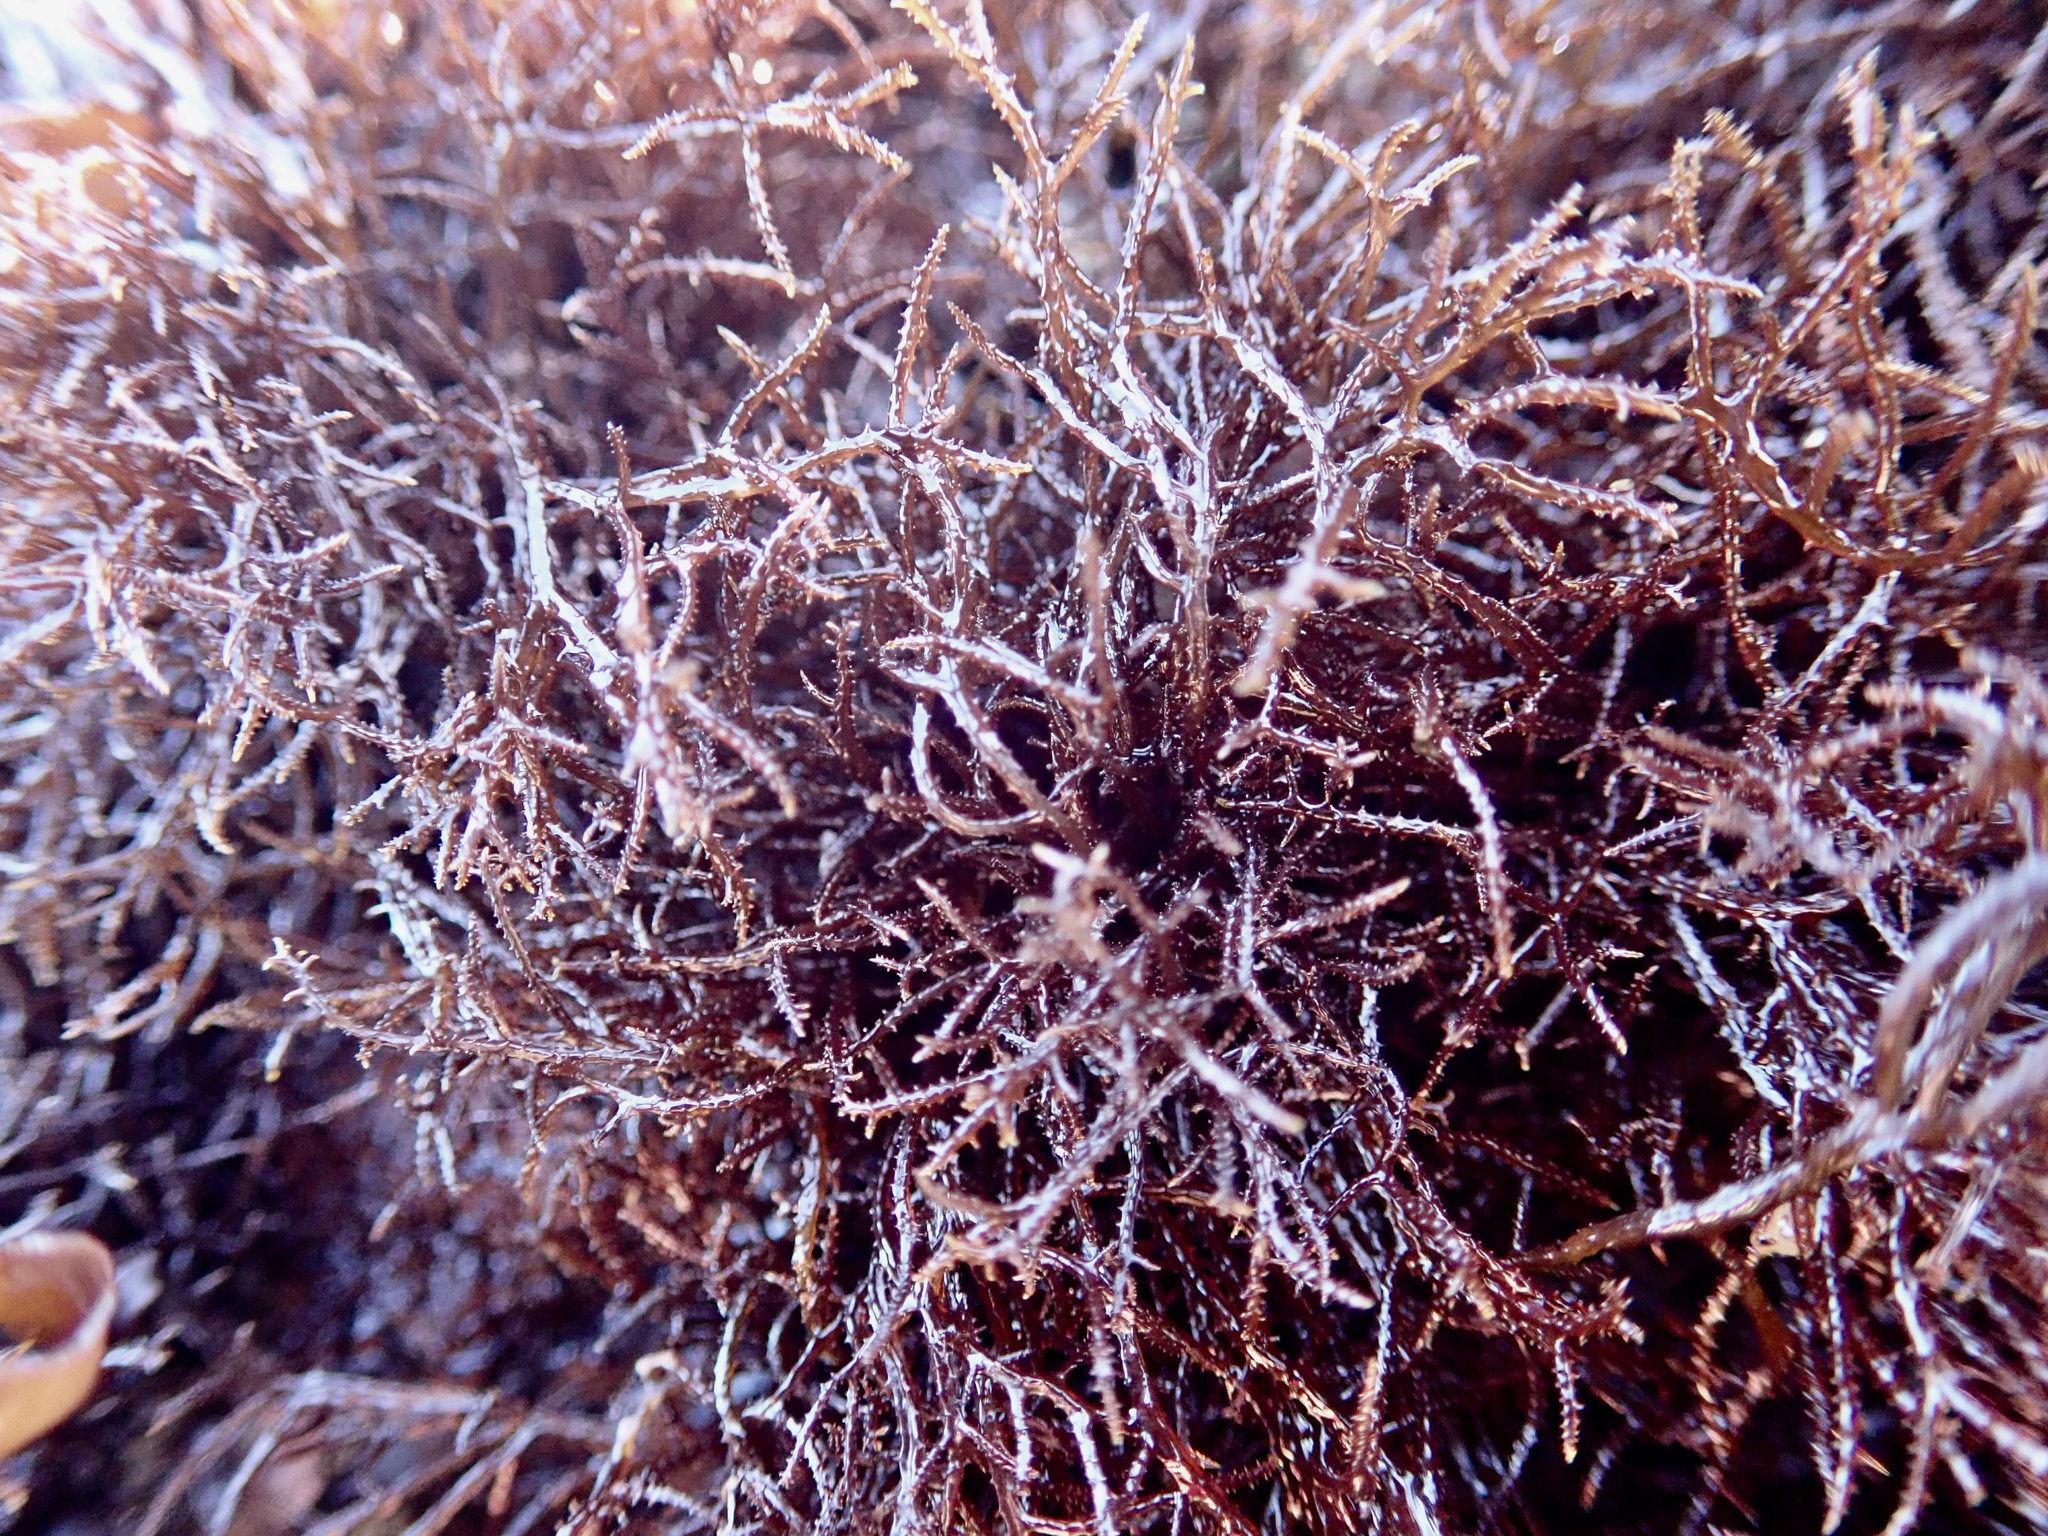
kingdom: Plantae
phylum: Rhodophyta
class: Florideophyceae
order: Gigartinales
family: Endocladiaceae
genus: Endocladia
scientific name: Endocladia muricata
